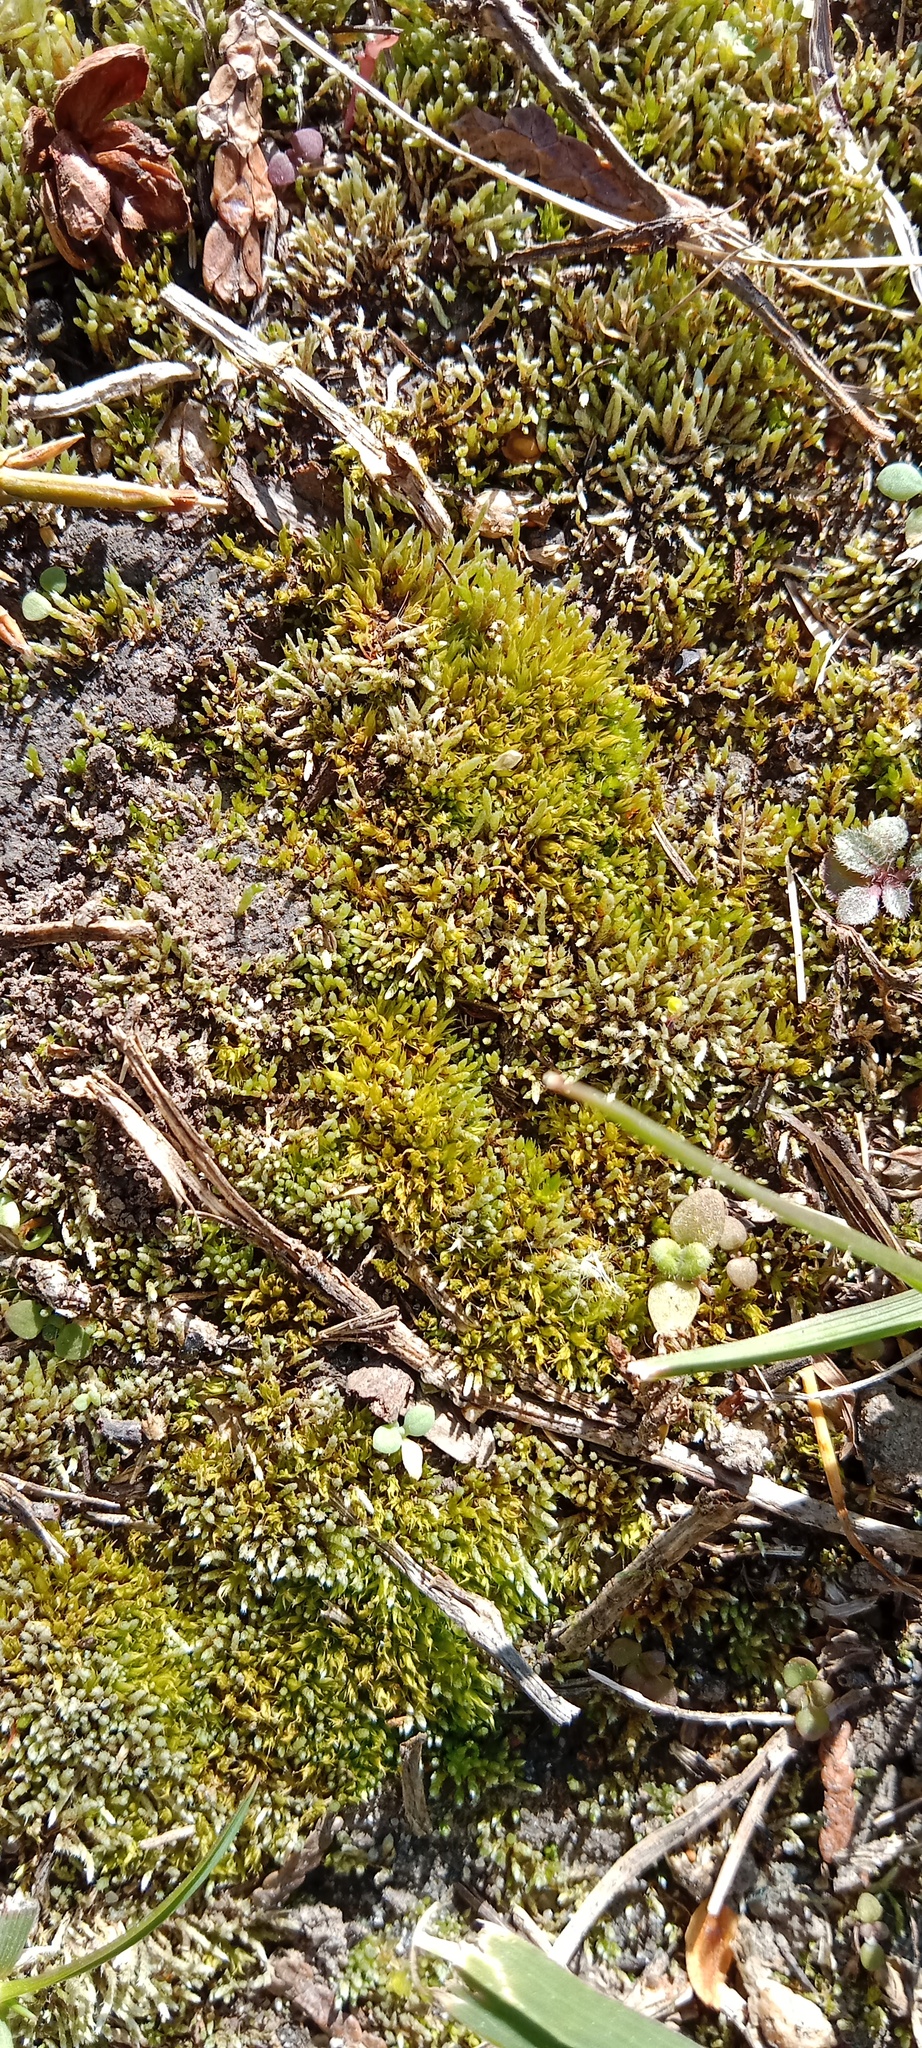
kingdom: Plantae
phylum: Bryophyta
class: Bryopsida
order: Bryales
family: Bryaceae
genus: Bryum
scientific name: Bryum argenteum
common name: Silver-moss
